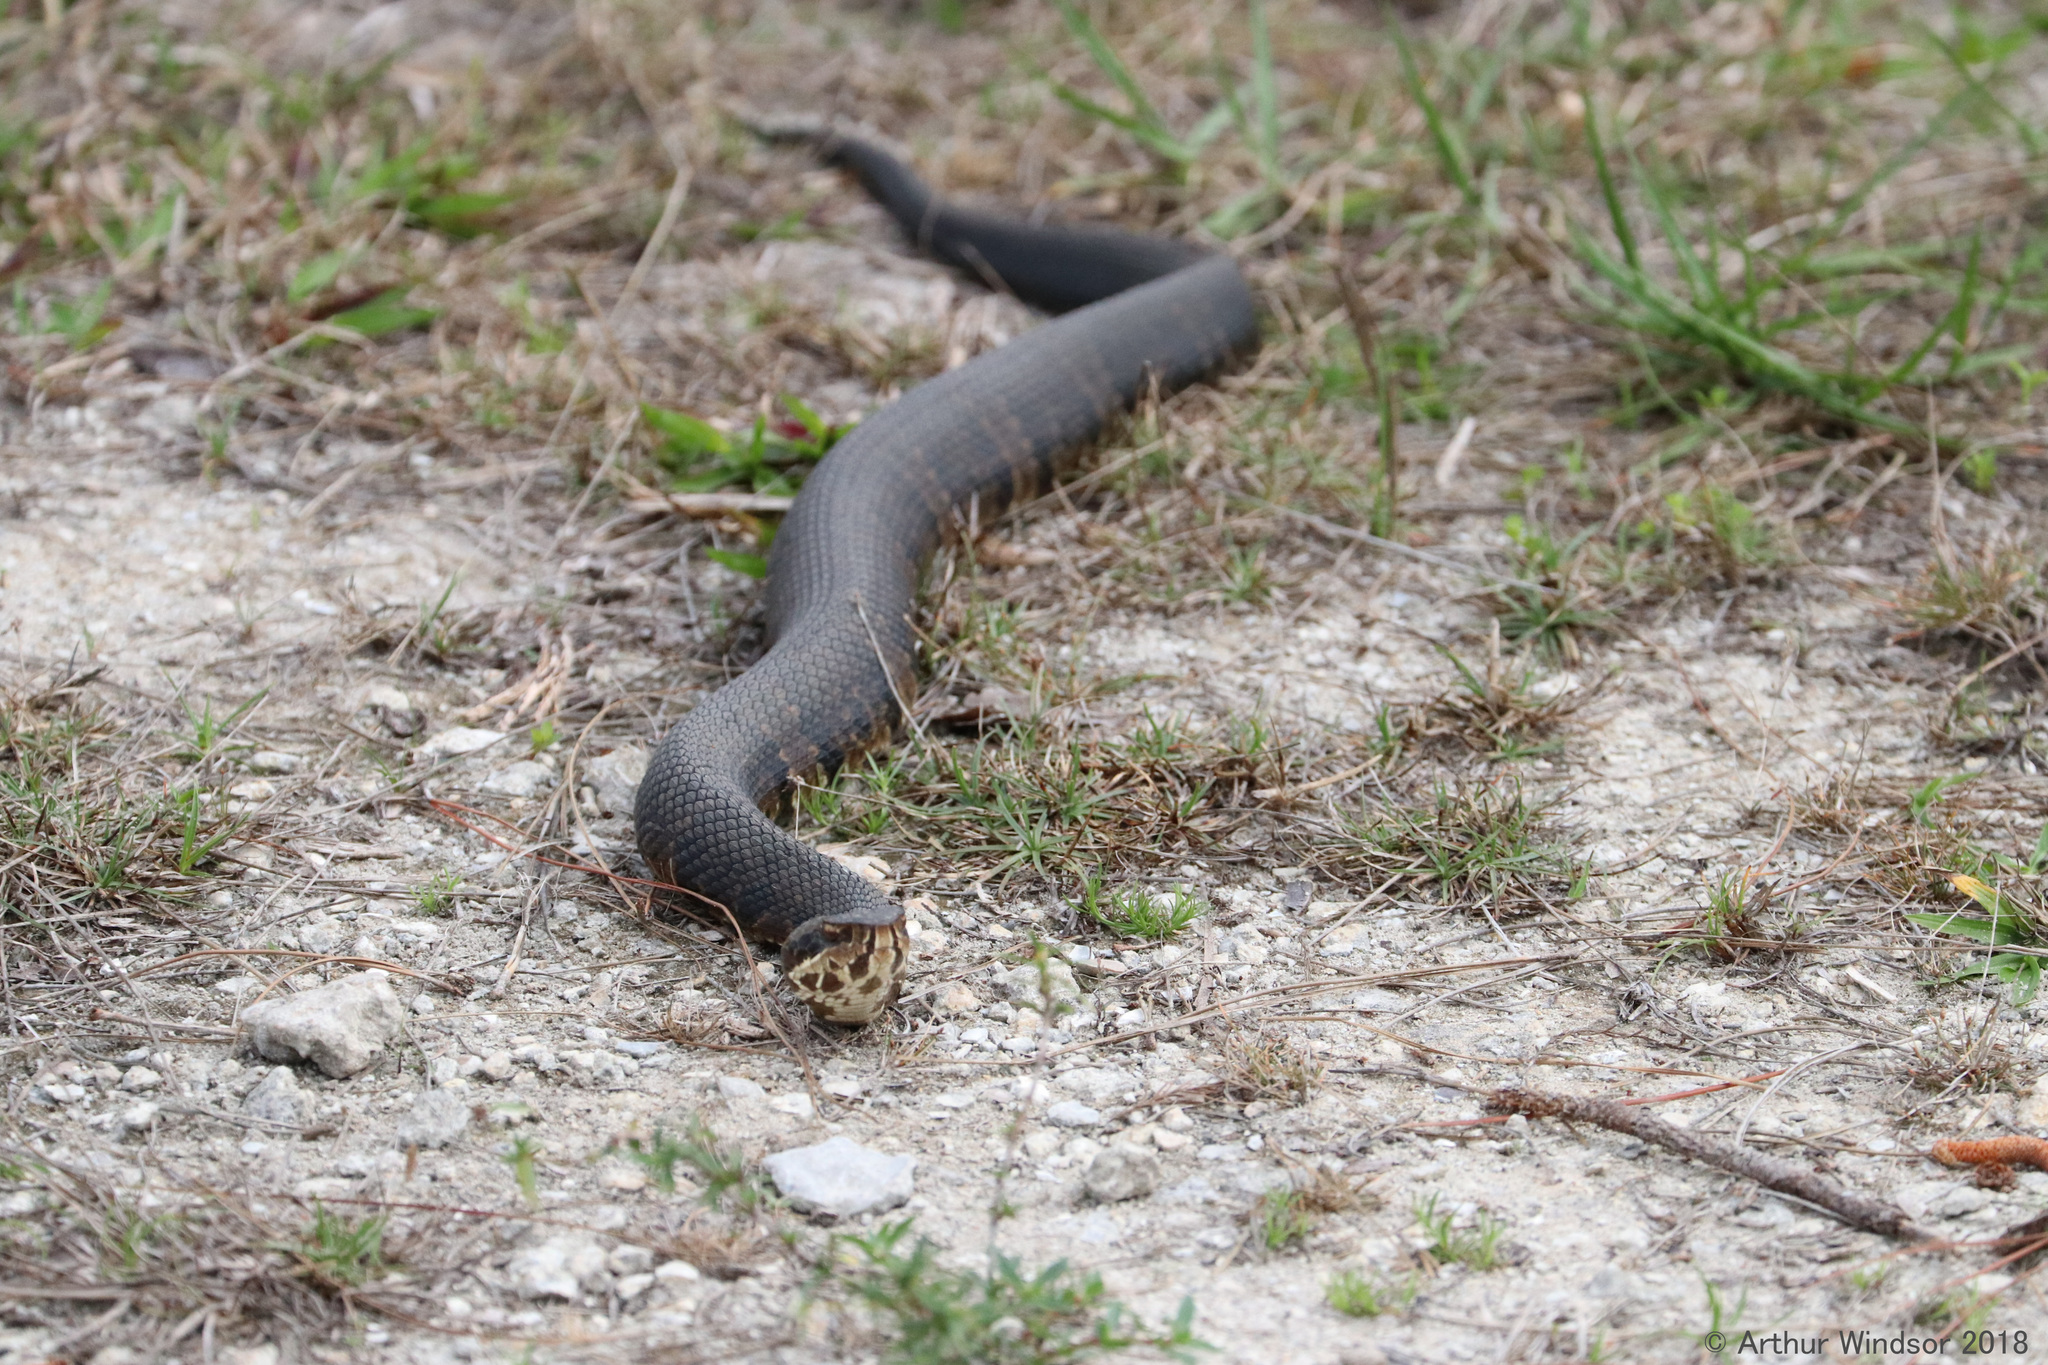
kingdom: Animalia
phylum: Chordata
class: Squamata
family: Viperidae
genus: Agkistrodon
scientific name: Agkistrodon conanti
